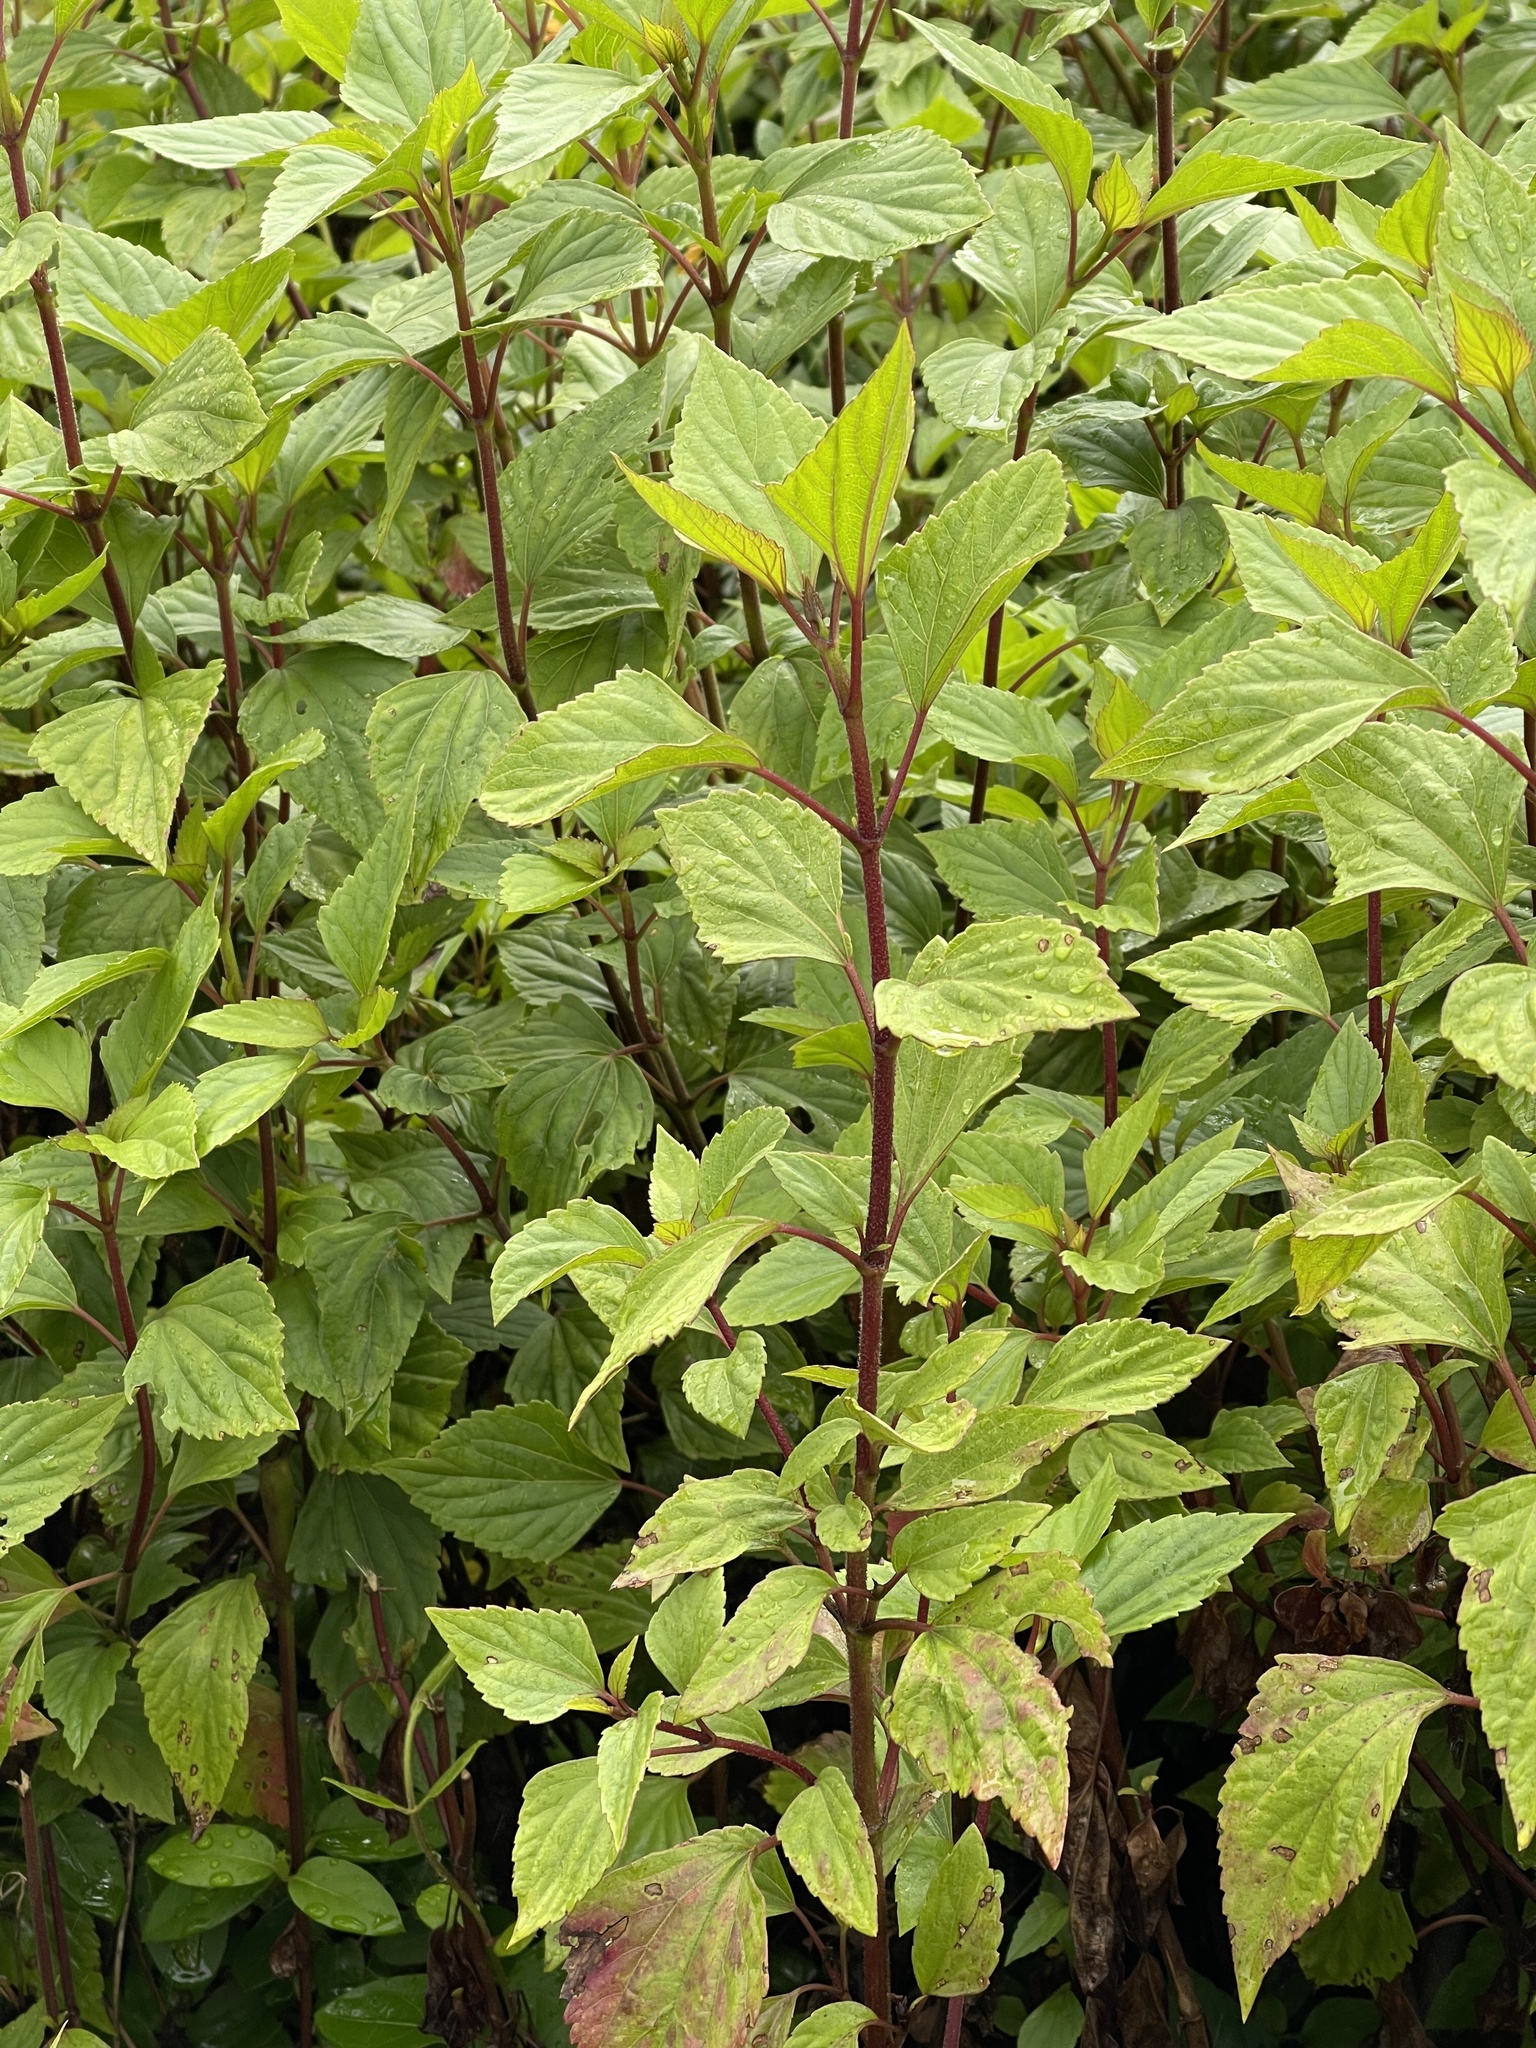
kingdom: Plantae
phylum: Tracheophyta
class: Magnoliopsida
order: Asterales
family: Asteraceae
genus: Ageratina
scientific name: Ageratina adenophora
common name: Sticky snakeroot
